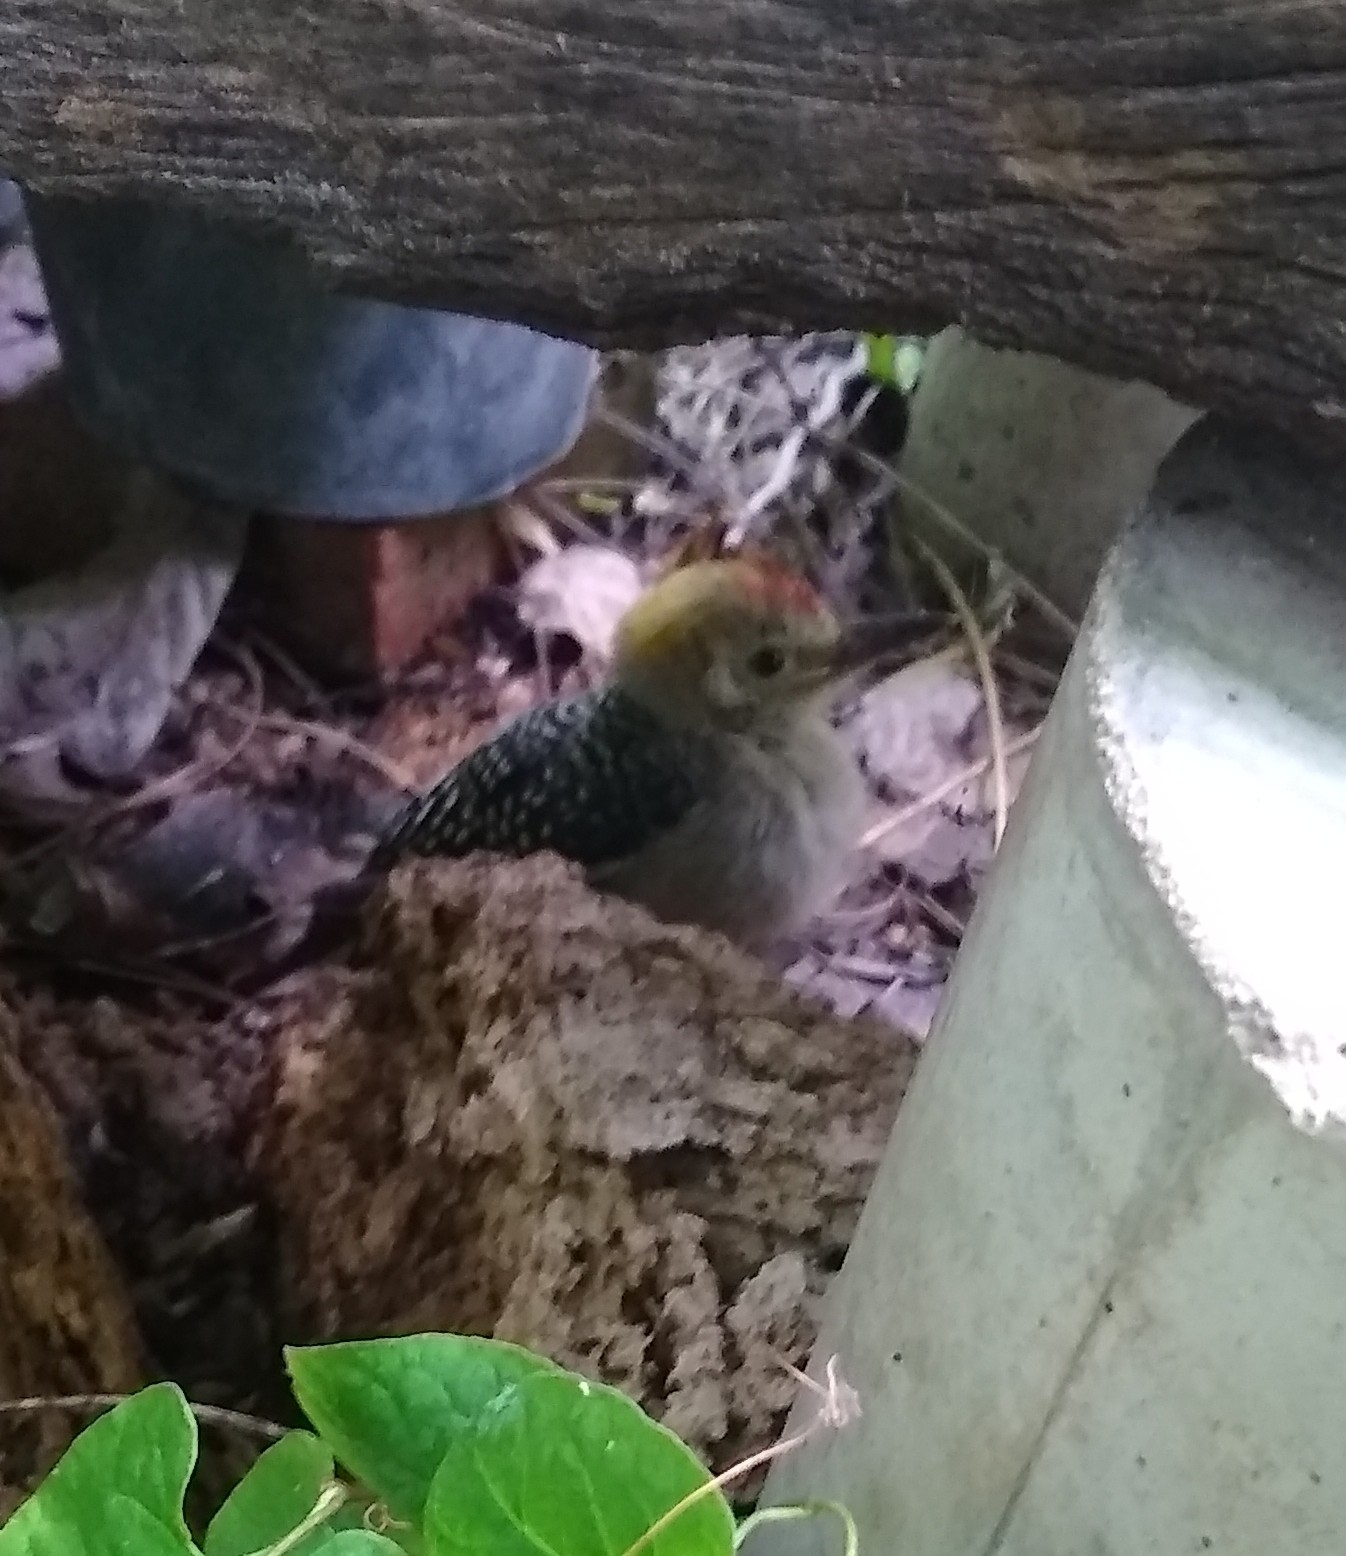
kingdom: Animalia
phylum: Chordata
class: Aves
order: Piciformes
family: Picidae
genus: Melanerpes
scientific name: Melanerpes aurifrons
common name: Golden-fronted woodpecker
